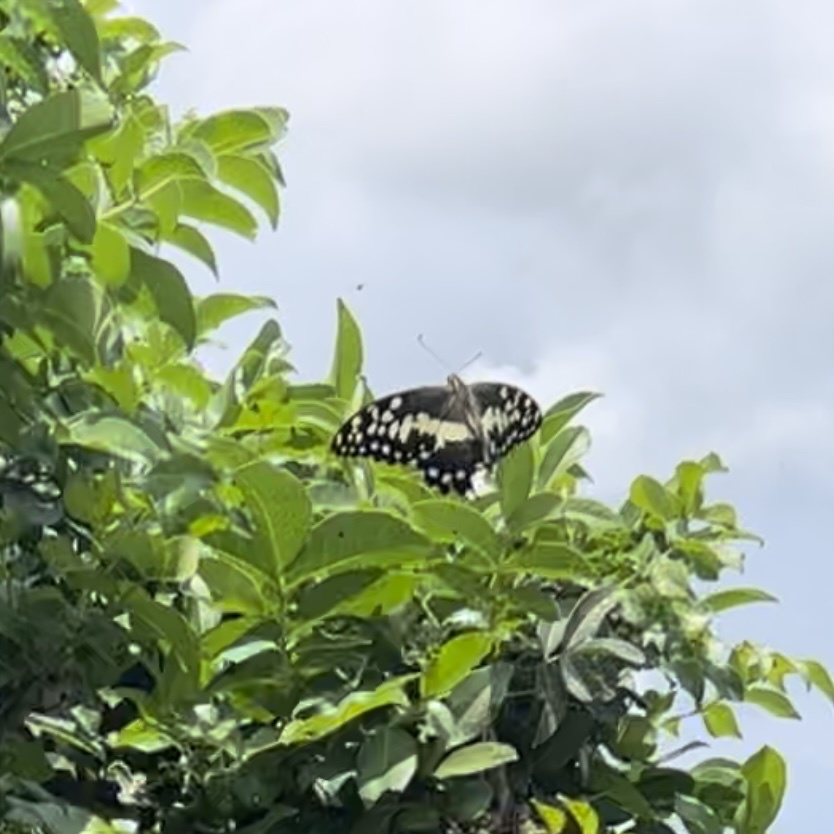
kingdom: Animalia
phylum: Arthropoda
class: Insecta
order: Lepidoptera
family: Papilionidae
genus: Papilio
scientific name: Papilio demodocus
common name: Christmas butterfly
